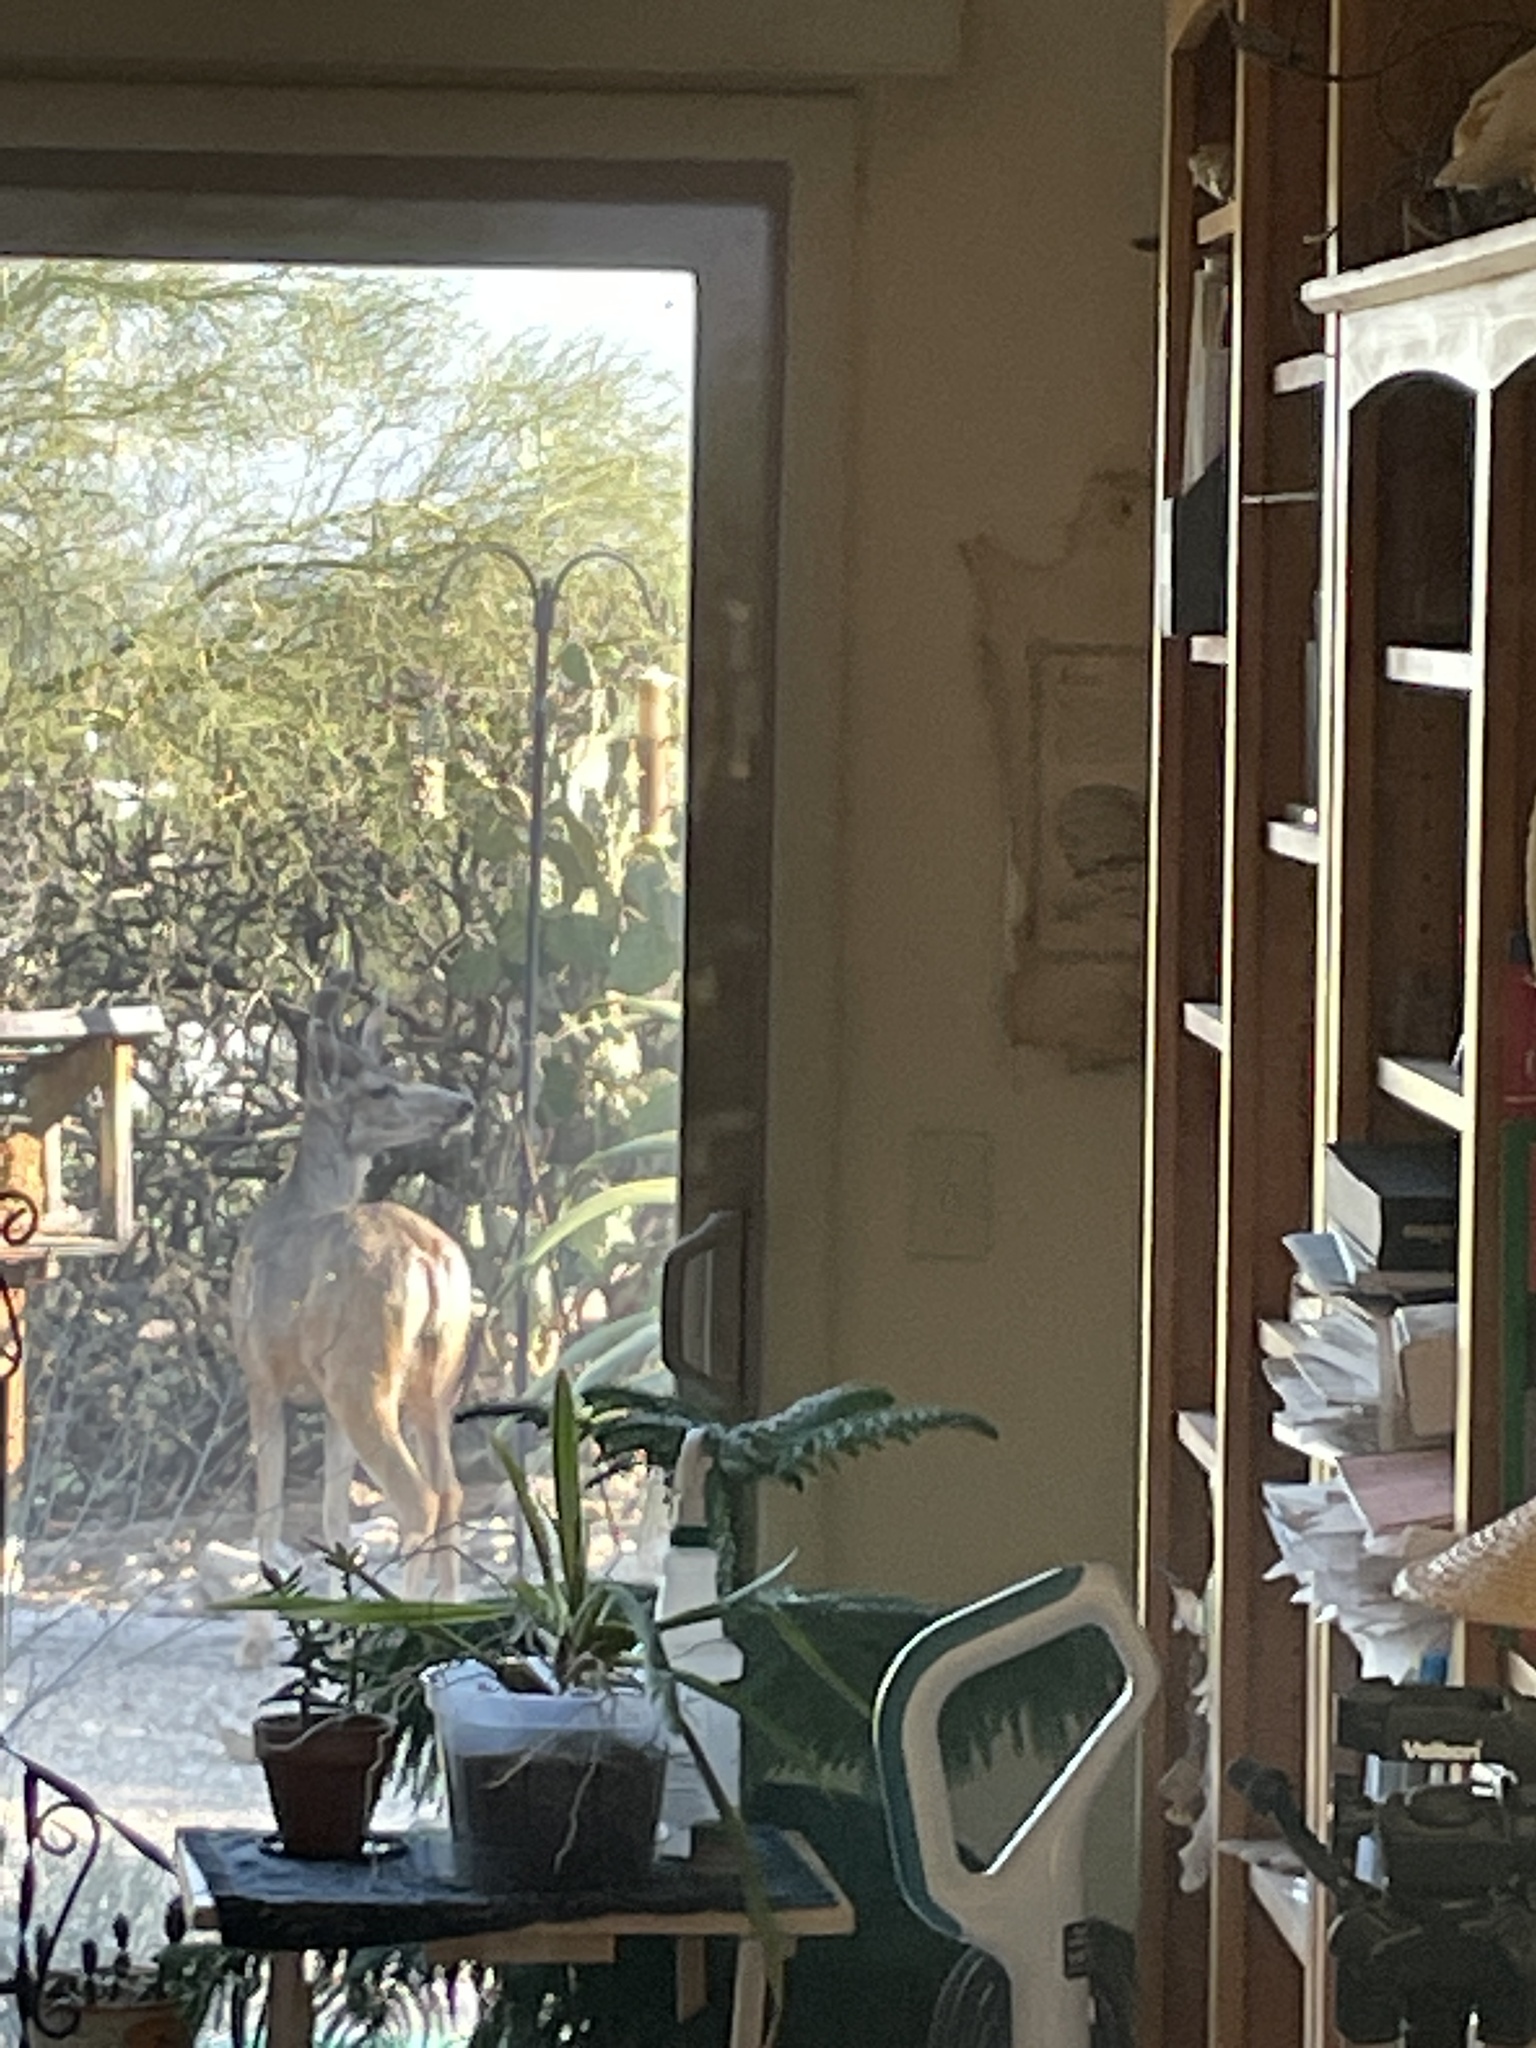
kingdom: Animalia
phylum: Chordata
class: Mammalia
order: Artiodactyla
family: Cervidae
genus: Odocoileus
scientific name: Odocoileus hemionus
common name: Mule deer
